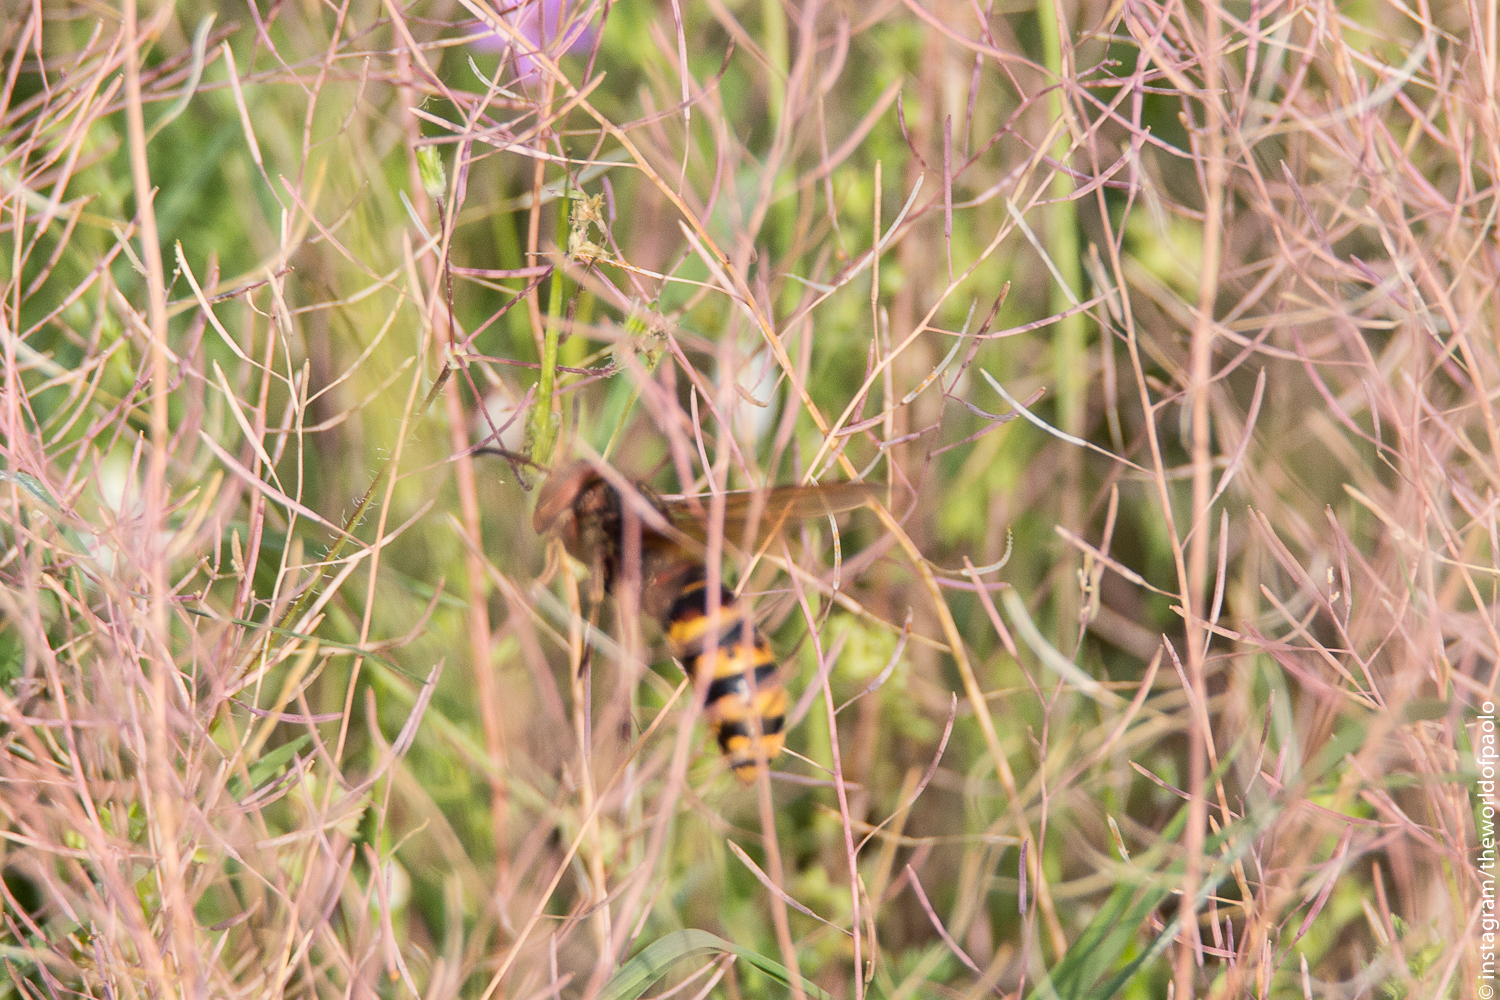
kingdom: Animalia
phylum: Arthropoda
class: Insecta
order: Hymenoptera
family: Vespidae
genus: Vespa
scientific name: Vespa crabro
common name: Hornet
